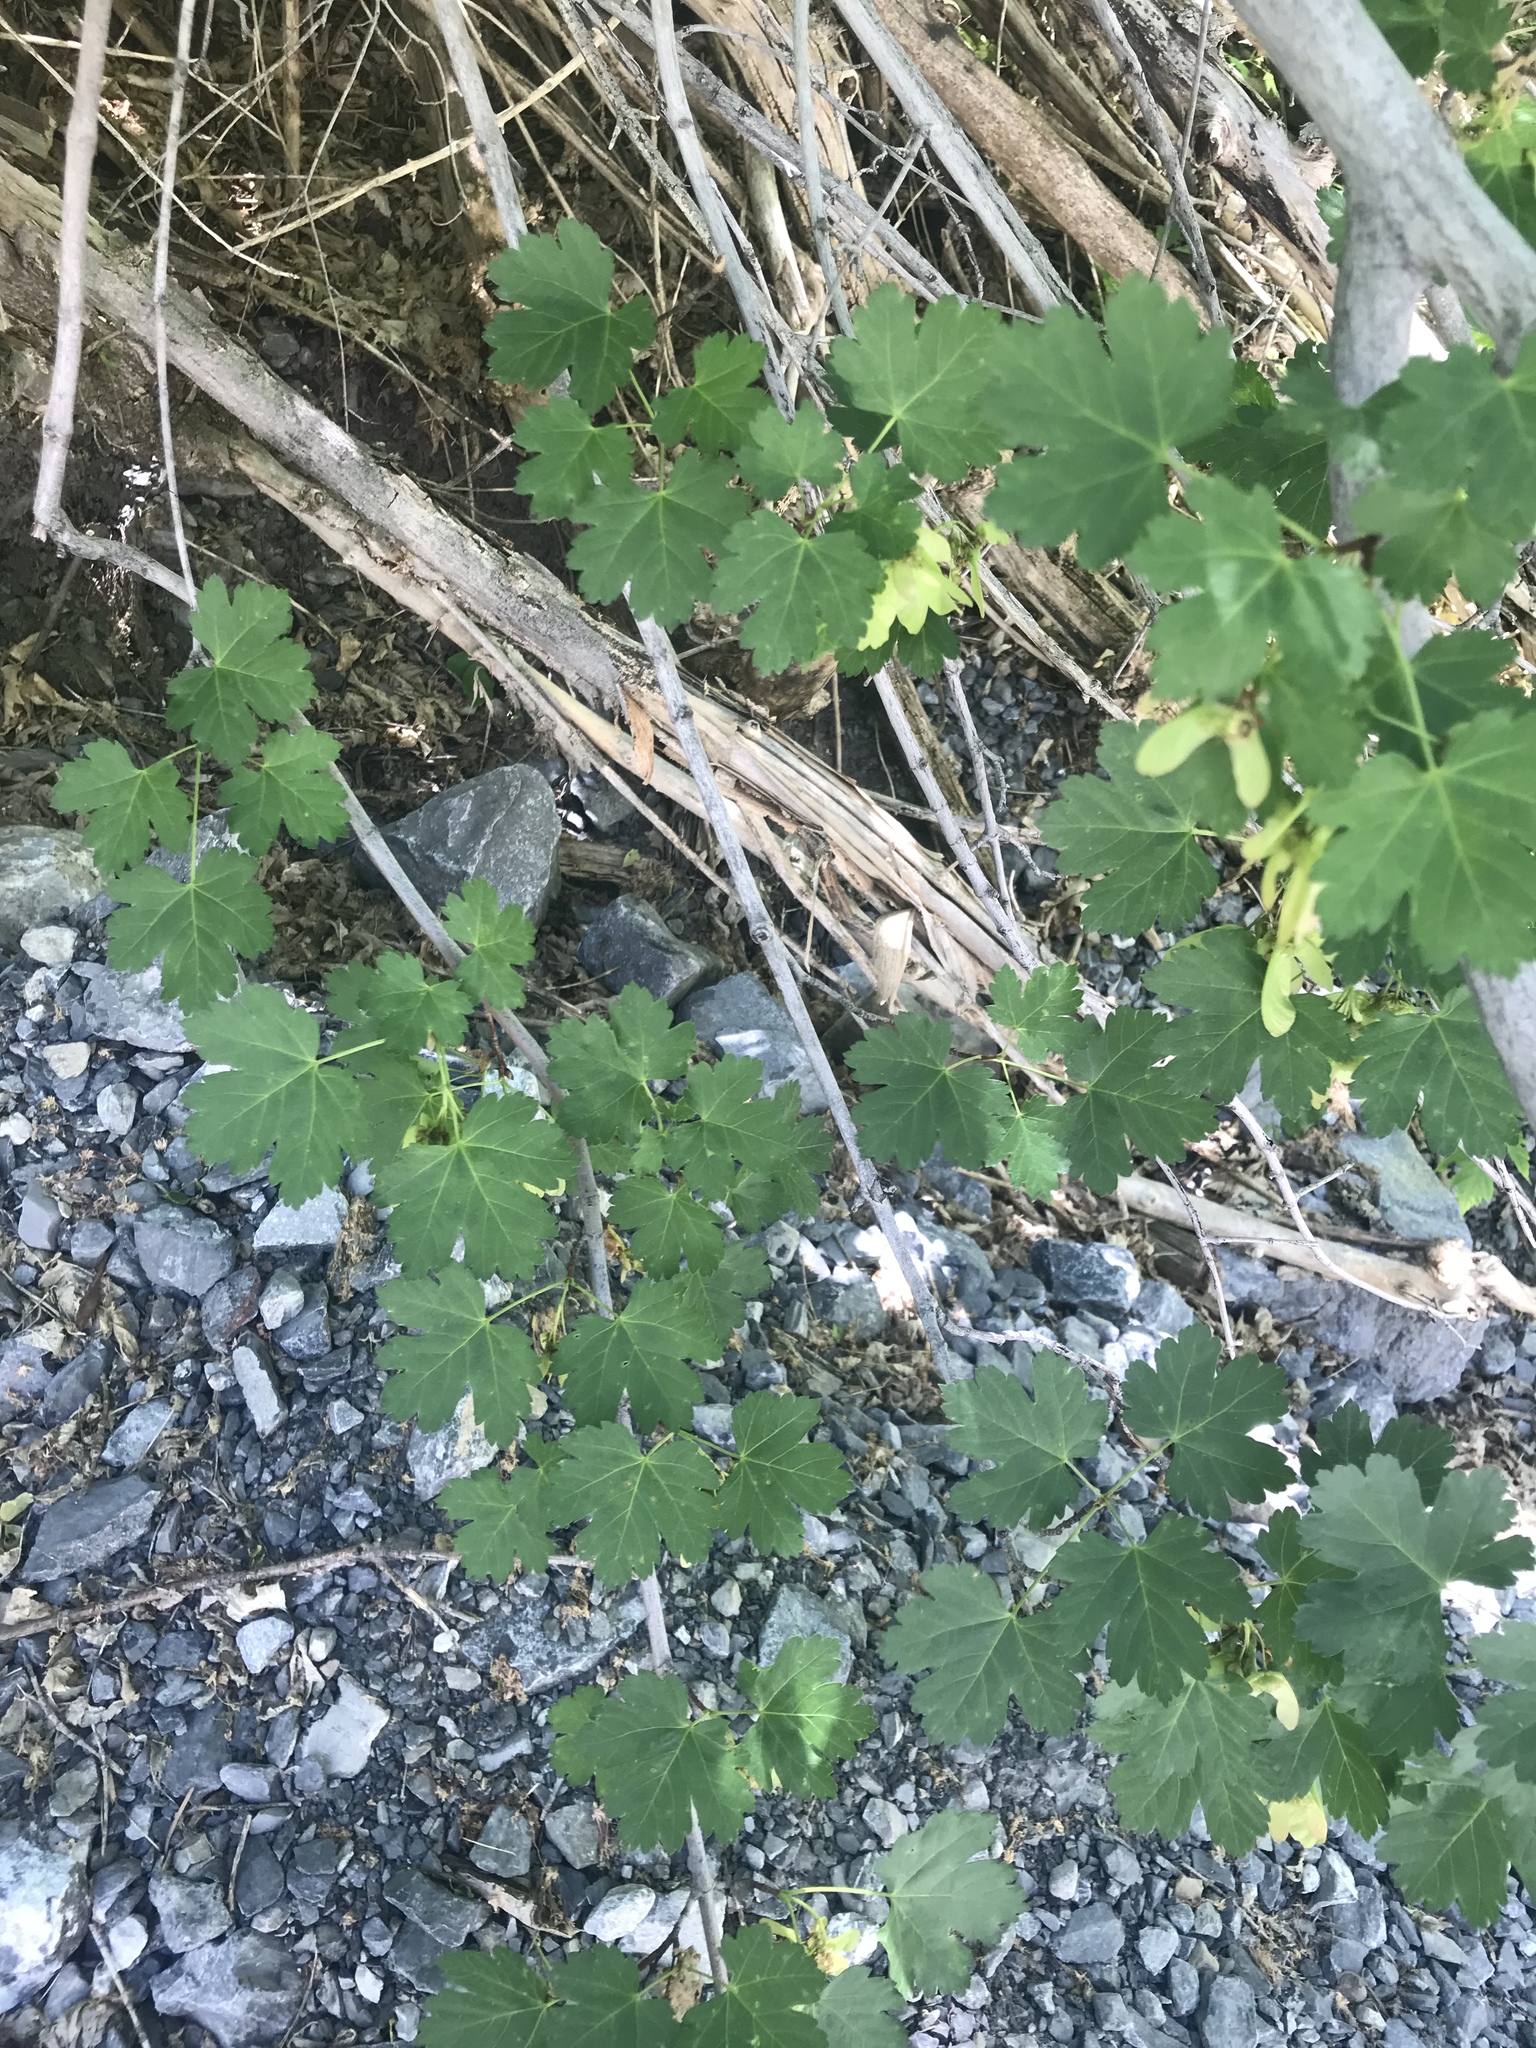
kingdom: Plantae
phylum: Tracheophyta
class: Magnoliopsida
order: Sapindales
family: Sapindaceae
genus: Acer
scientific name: Acer glabrum
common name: Rocky mountain maple
